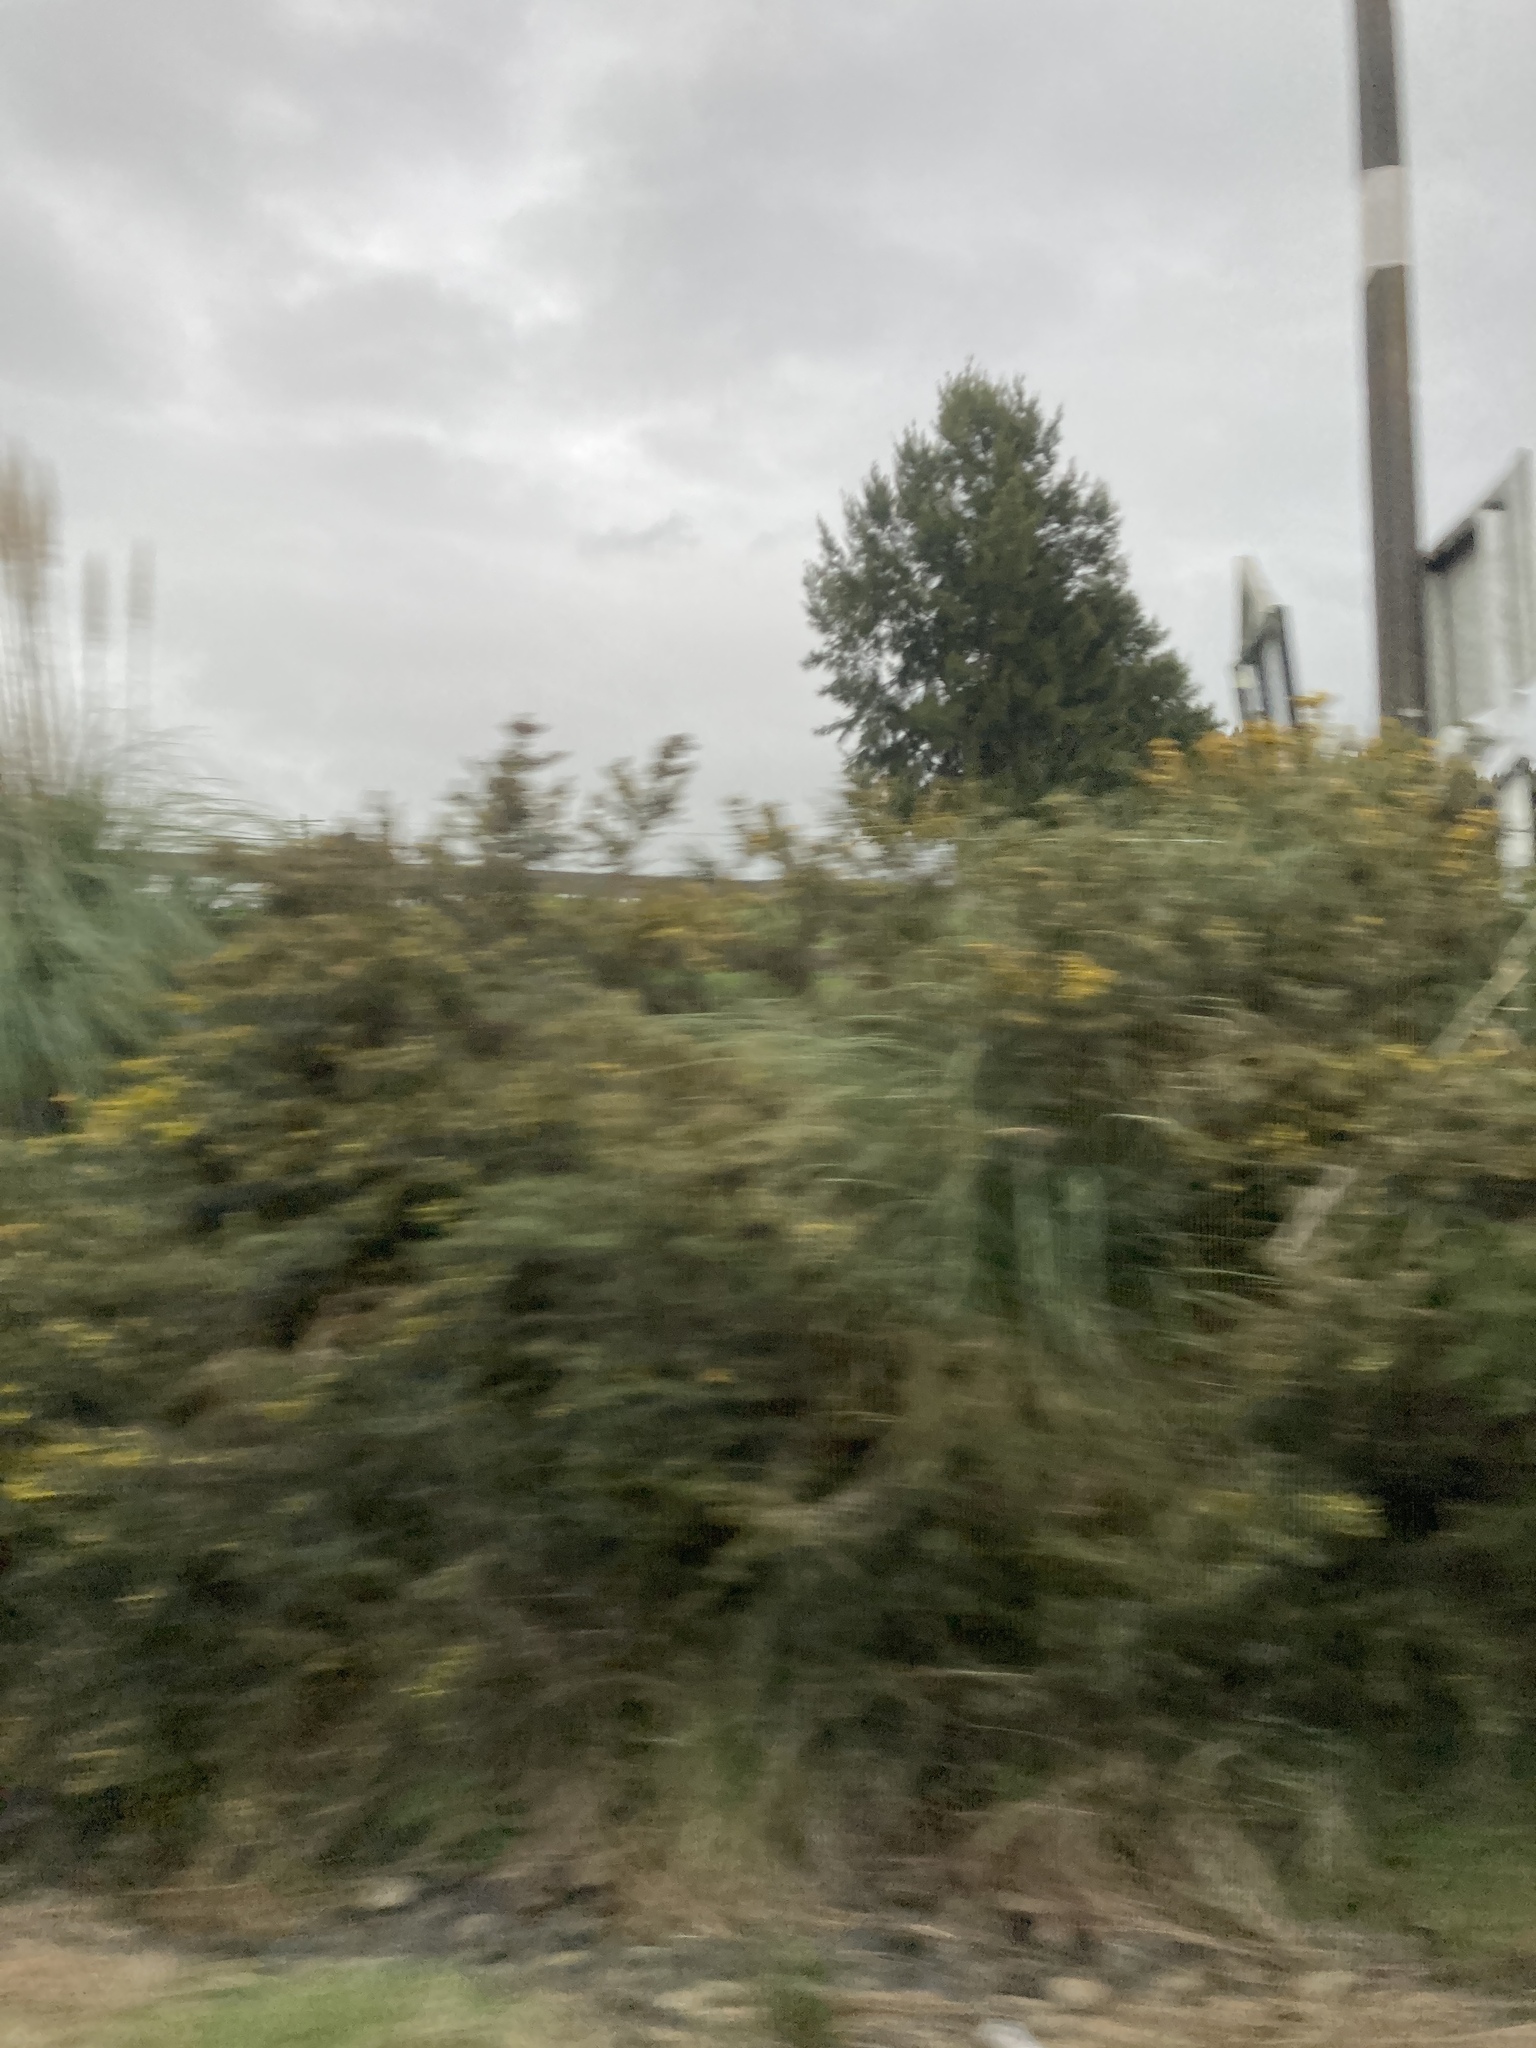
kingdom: Plantae
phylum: Tracheophyta
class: Magnoliopsida
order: Fabales
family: Fabaceae
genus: Ulex
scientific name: Ulex europaeus
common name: Common gorse
